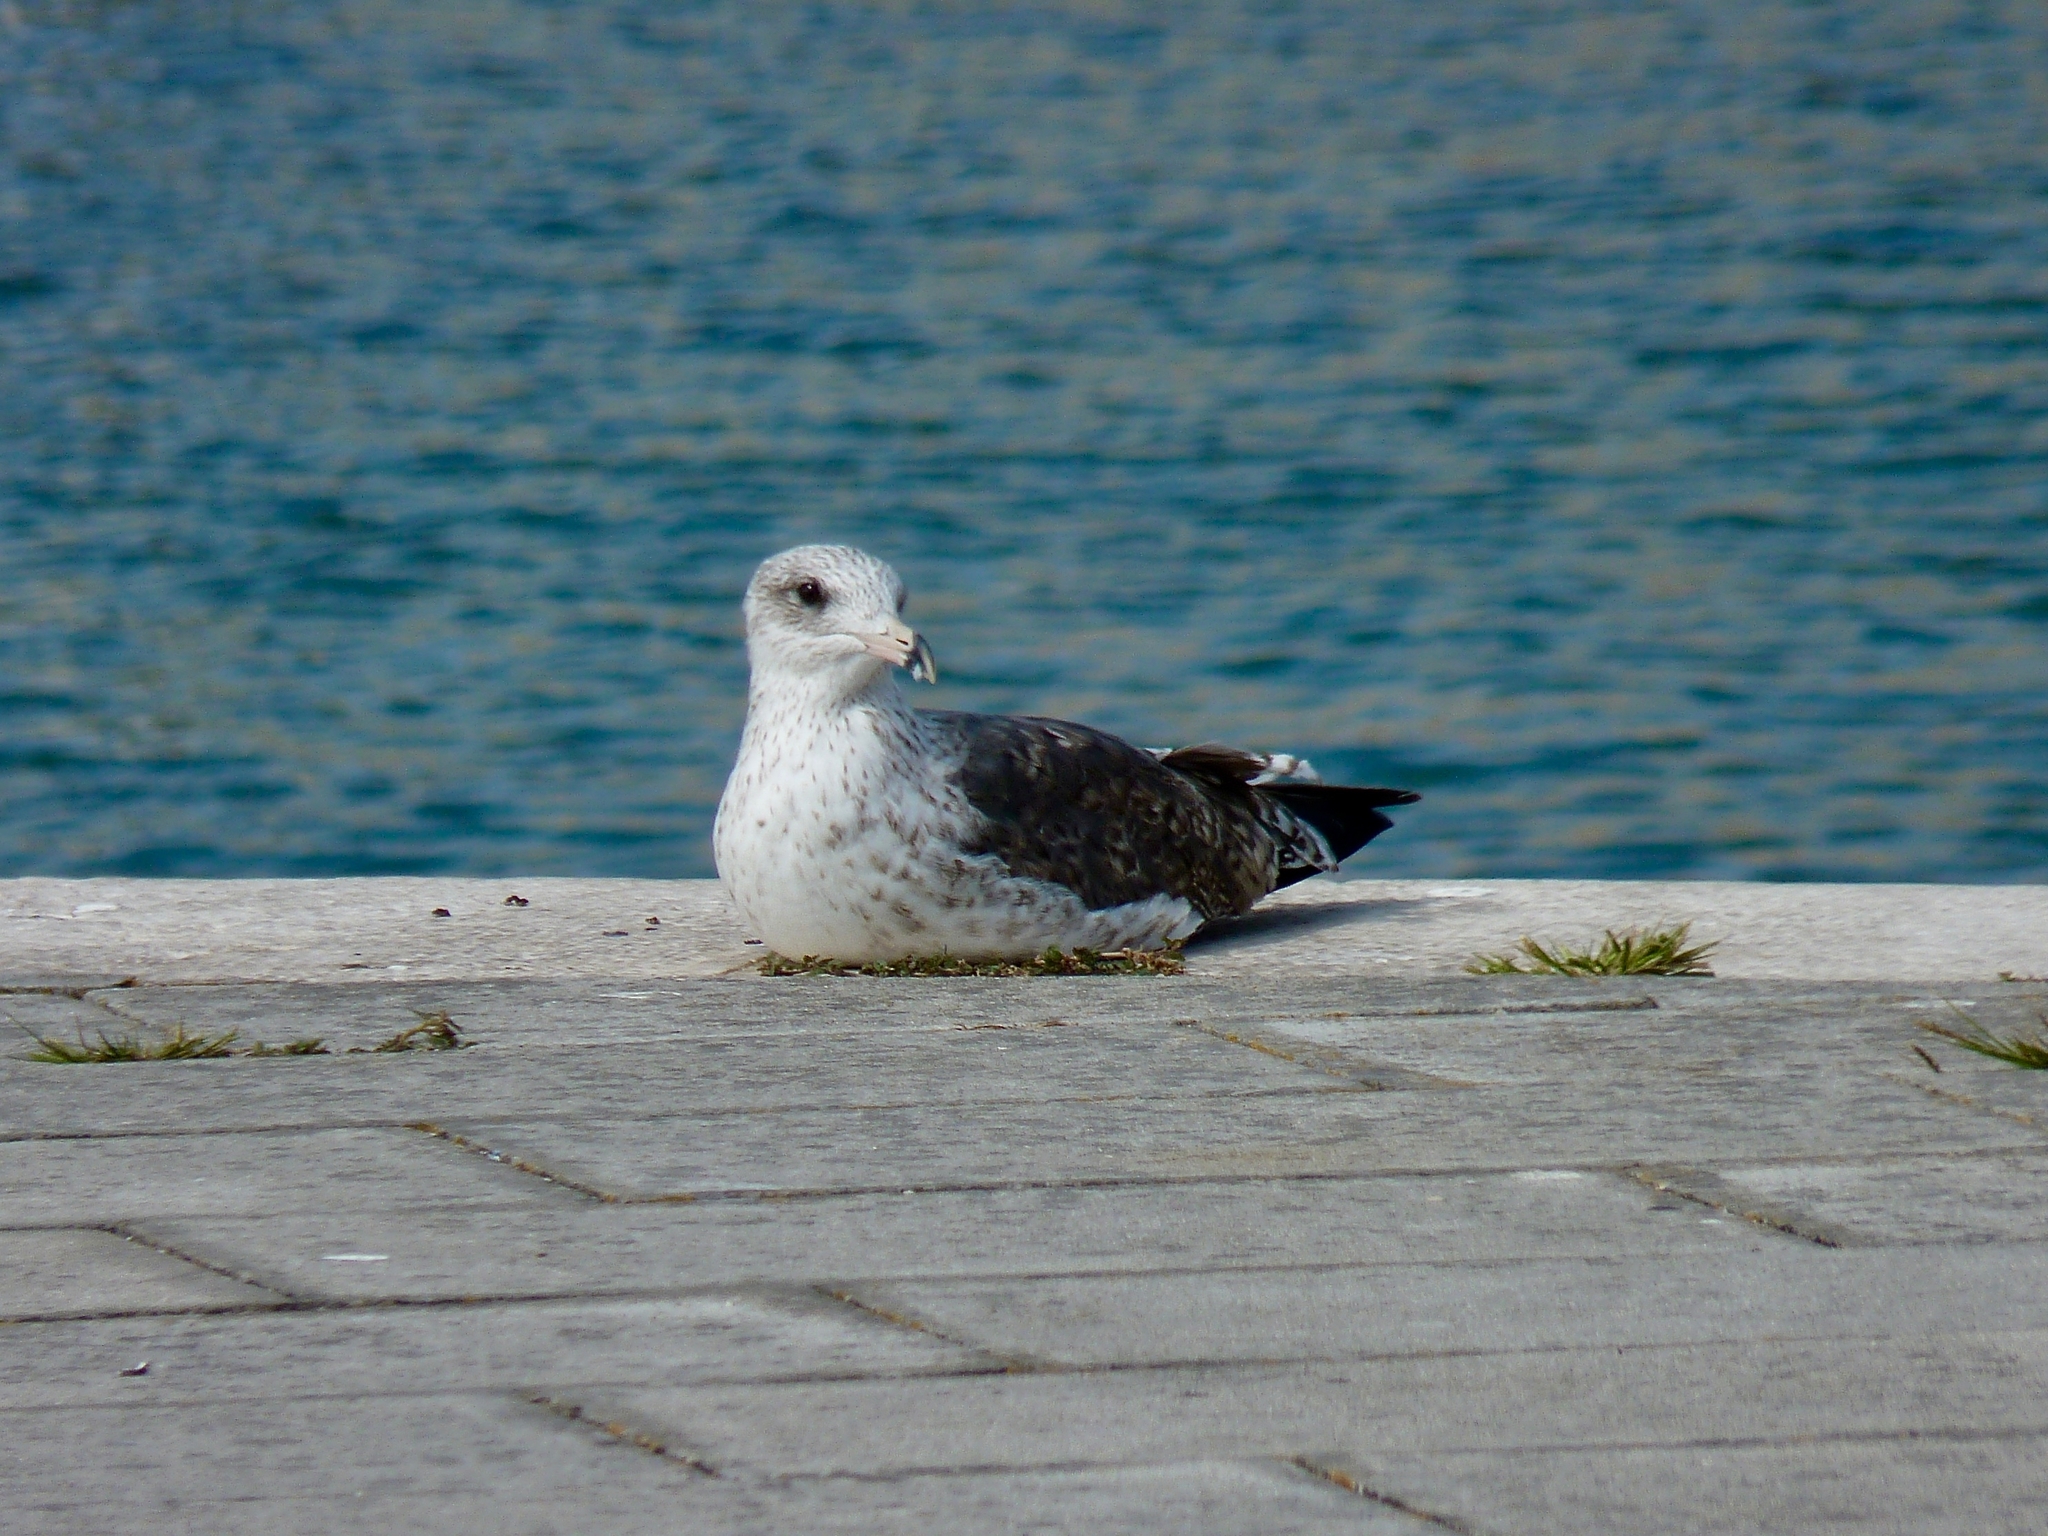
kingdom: Animalia
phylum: Chordata
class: Aves
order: Charadriiformes
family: Laridae
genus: Larus
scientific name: Larus fuscus
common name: Lesser black-backed gull
